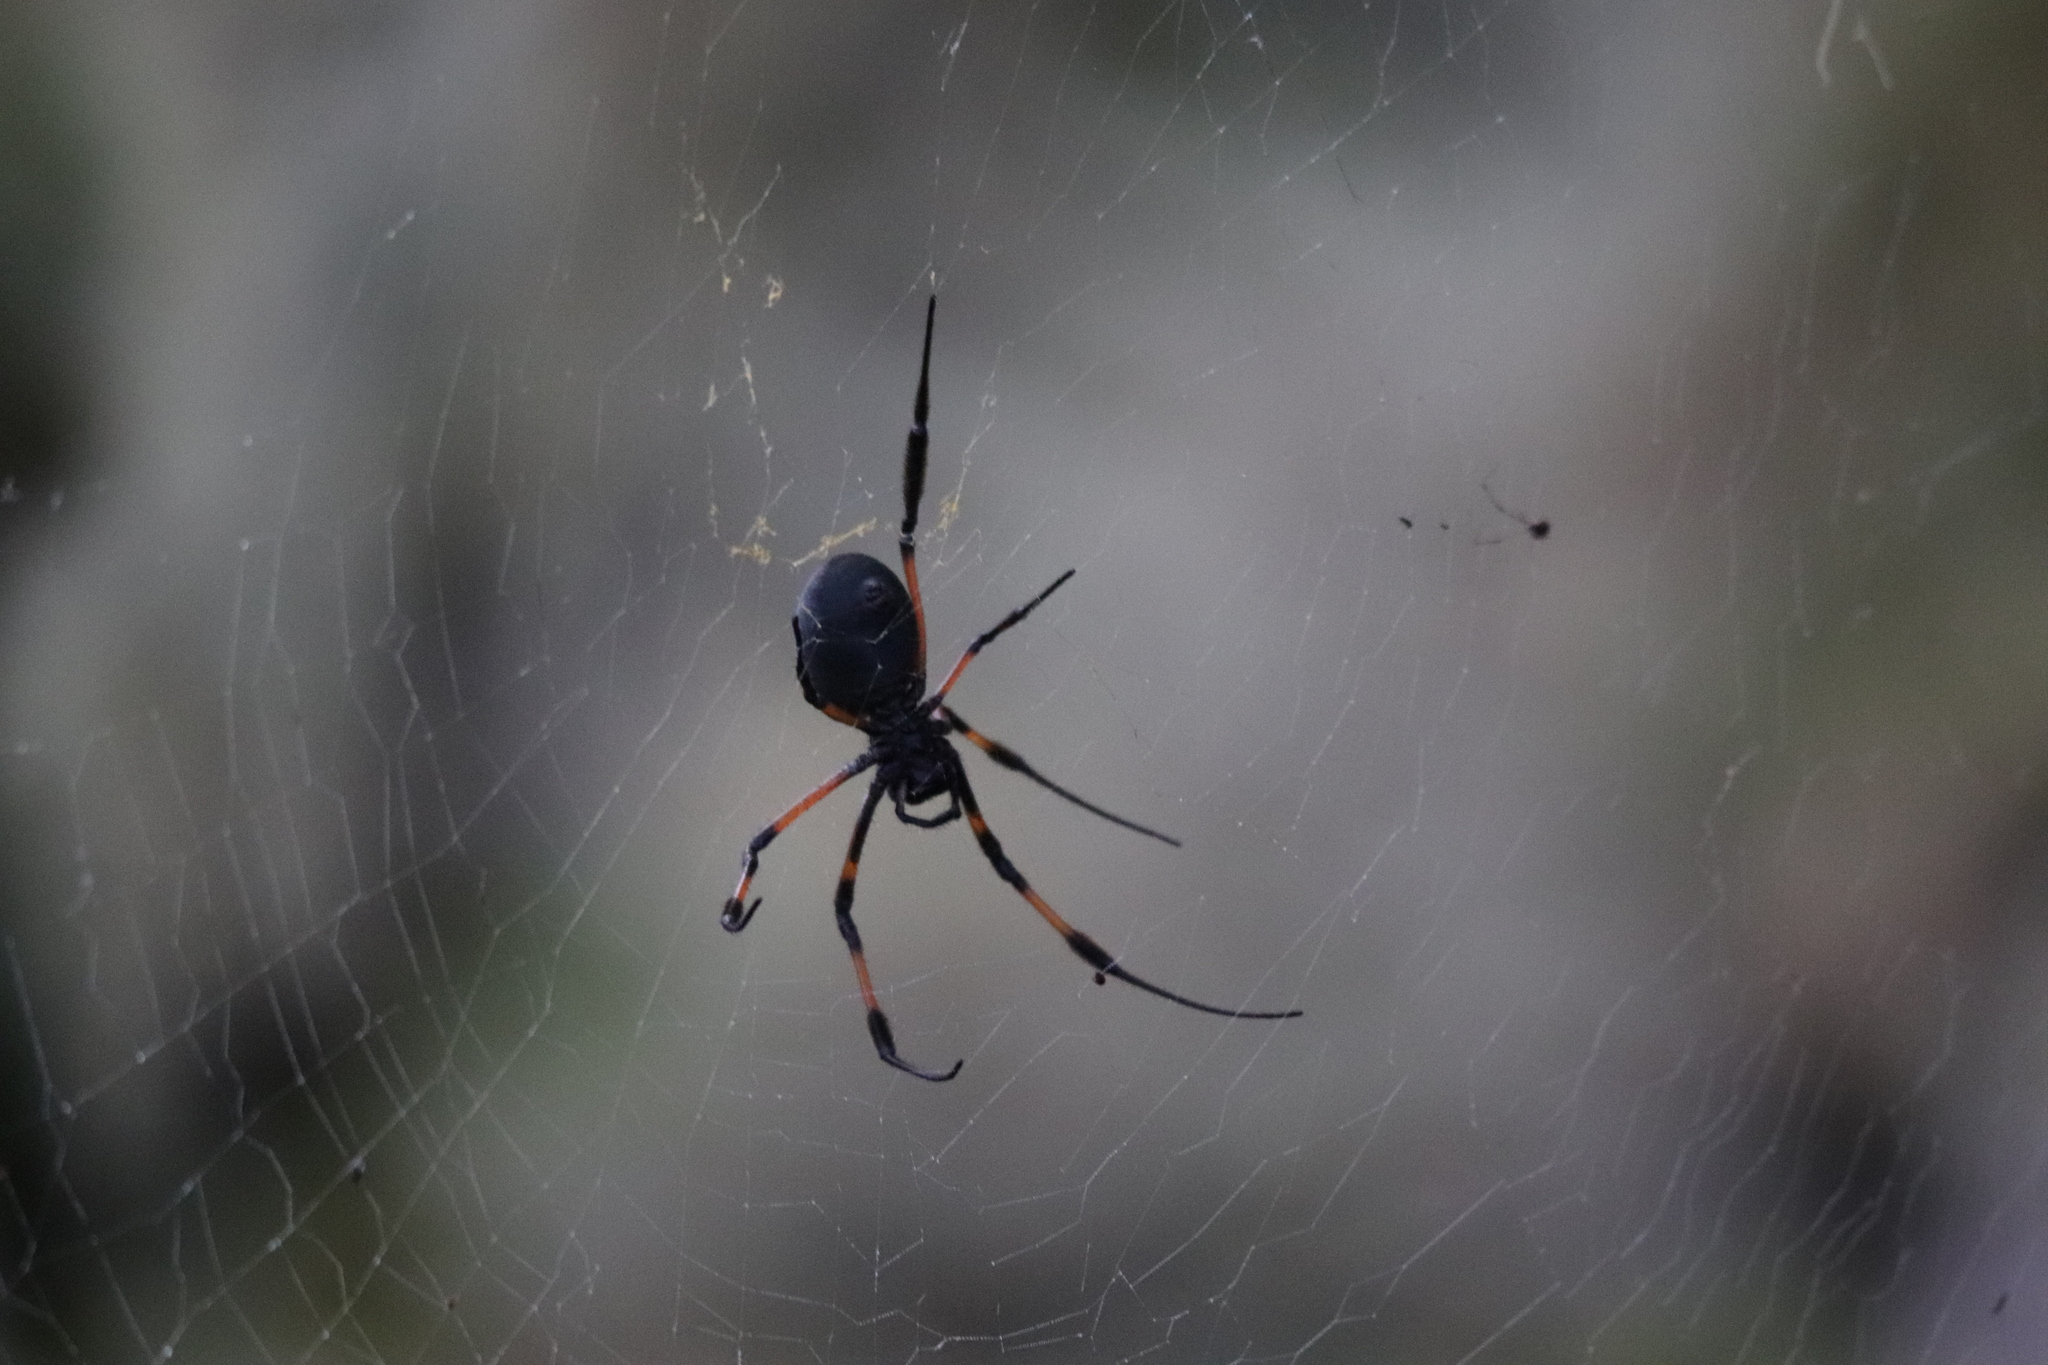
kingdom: Animalia
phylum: Arthropoda
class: Arachnida
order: Araneae
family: Araneidae
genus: Trichonephila
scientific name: Trichonephila inaurata
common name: Red-legged golden orb weaver
